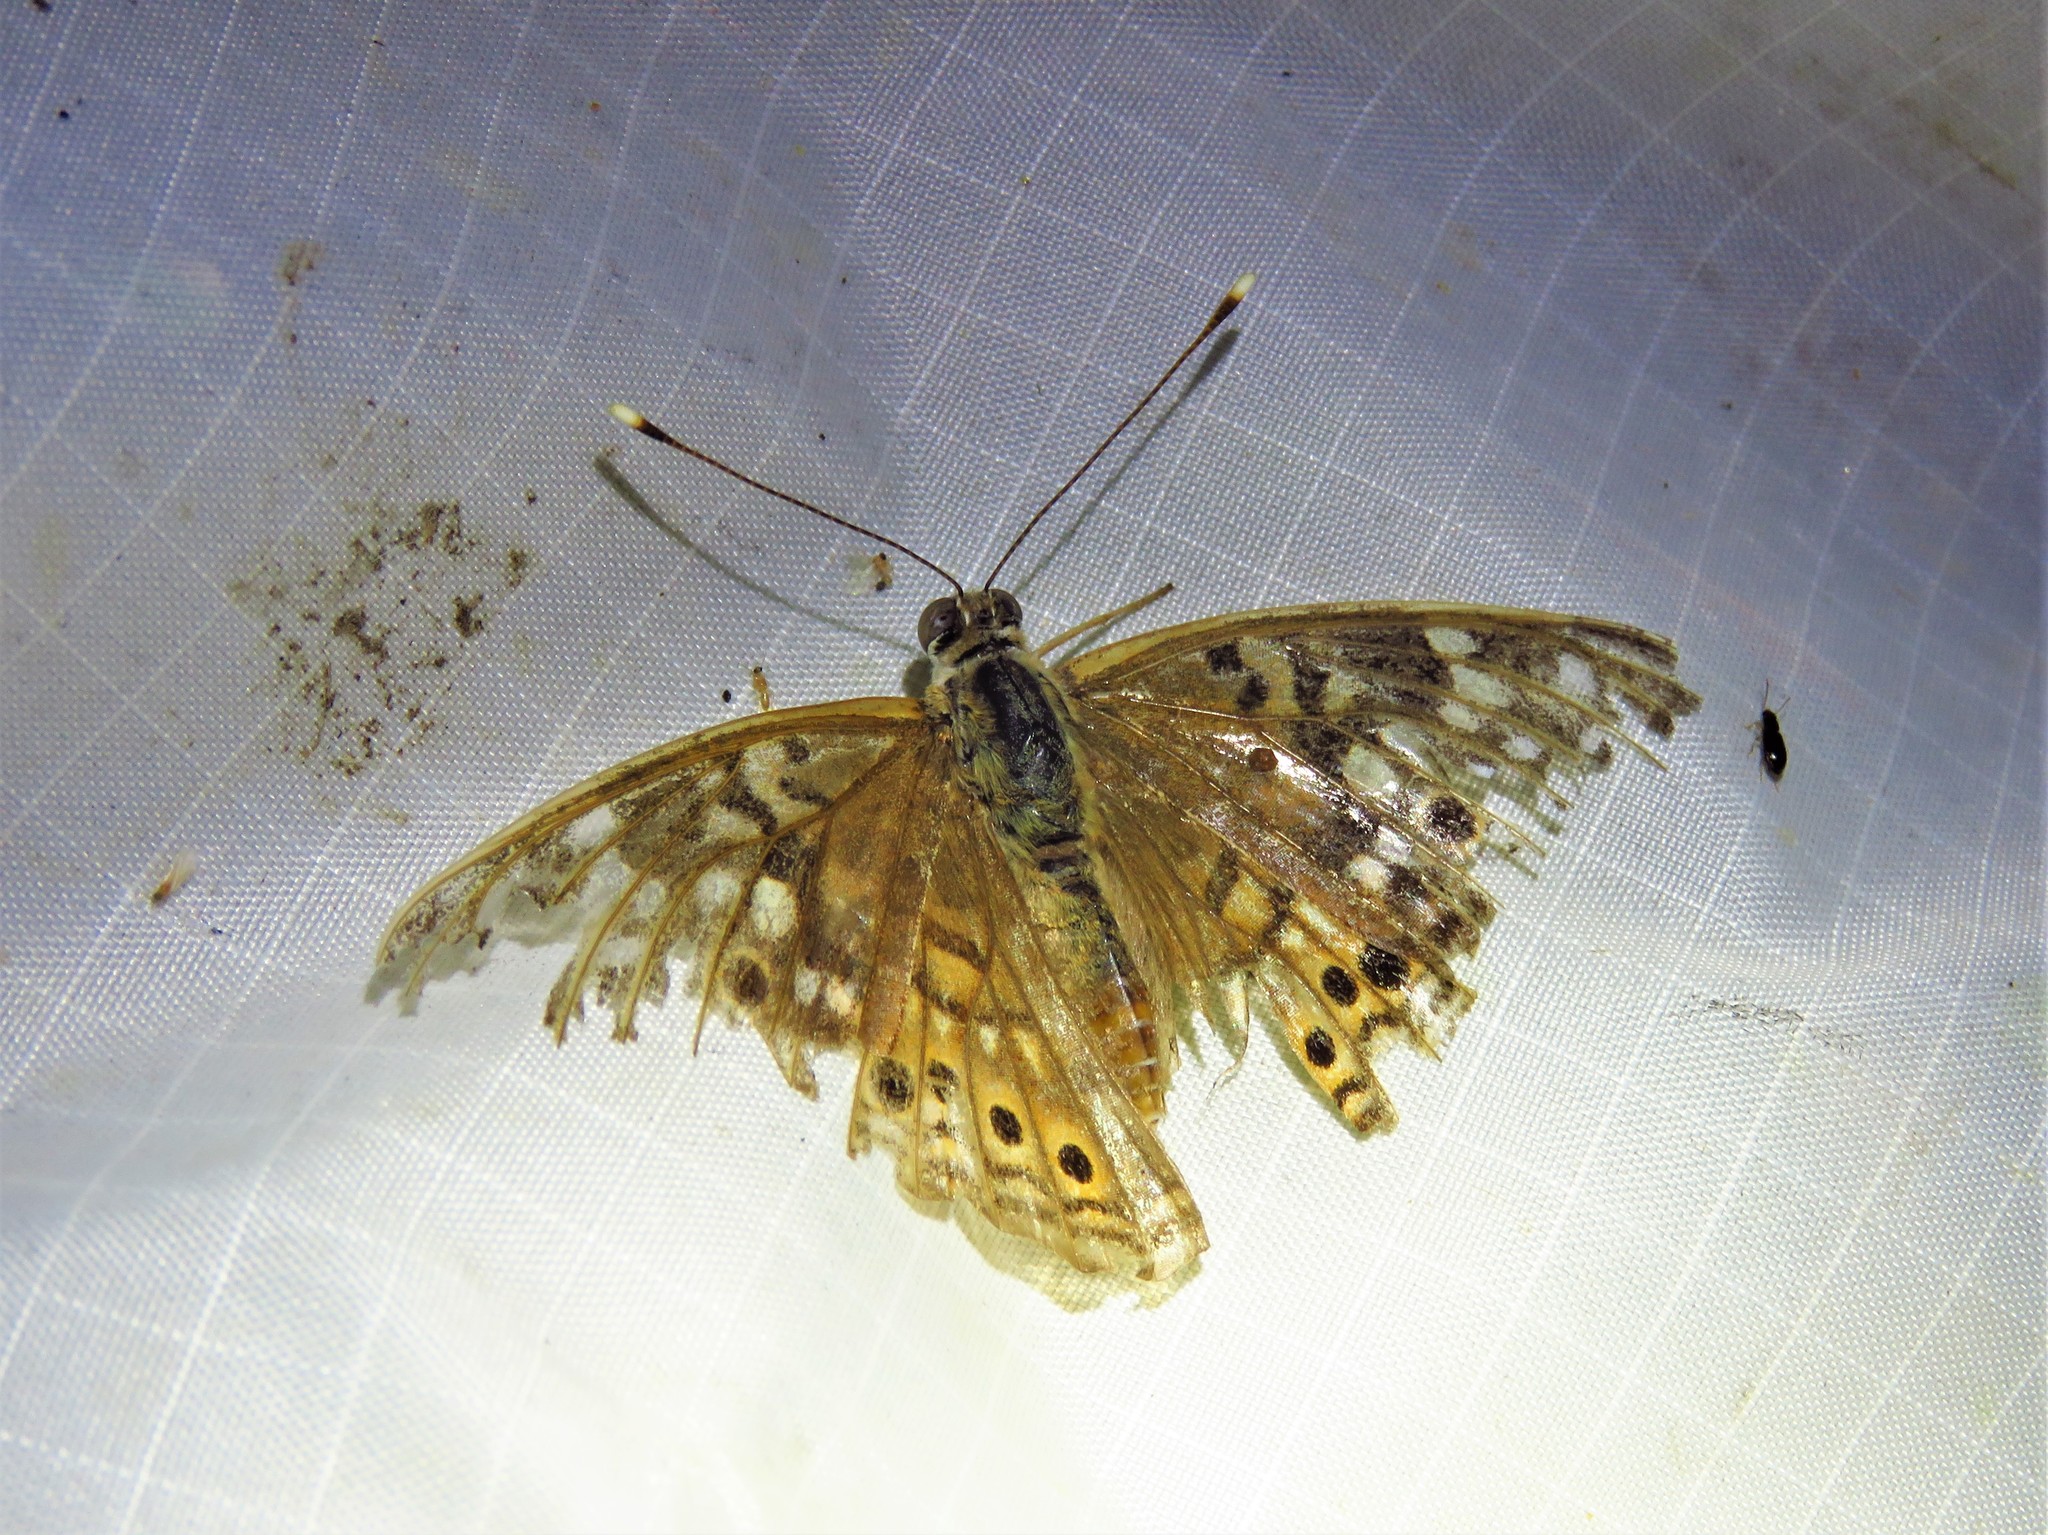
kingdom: Animalia
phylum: Arthropoda
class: Insecta
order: Lepidoptera
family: Nymphalidae
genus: Asterocampa
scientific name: Asterocampa celtis
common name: Hackberry emperor
